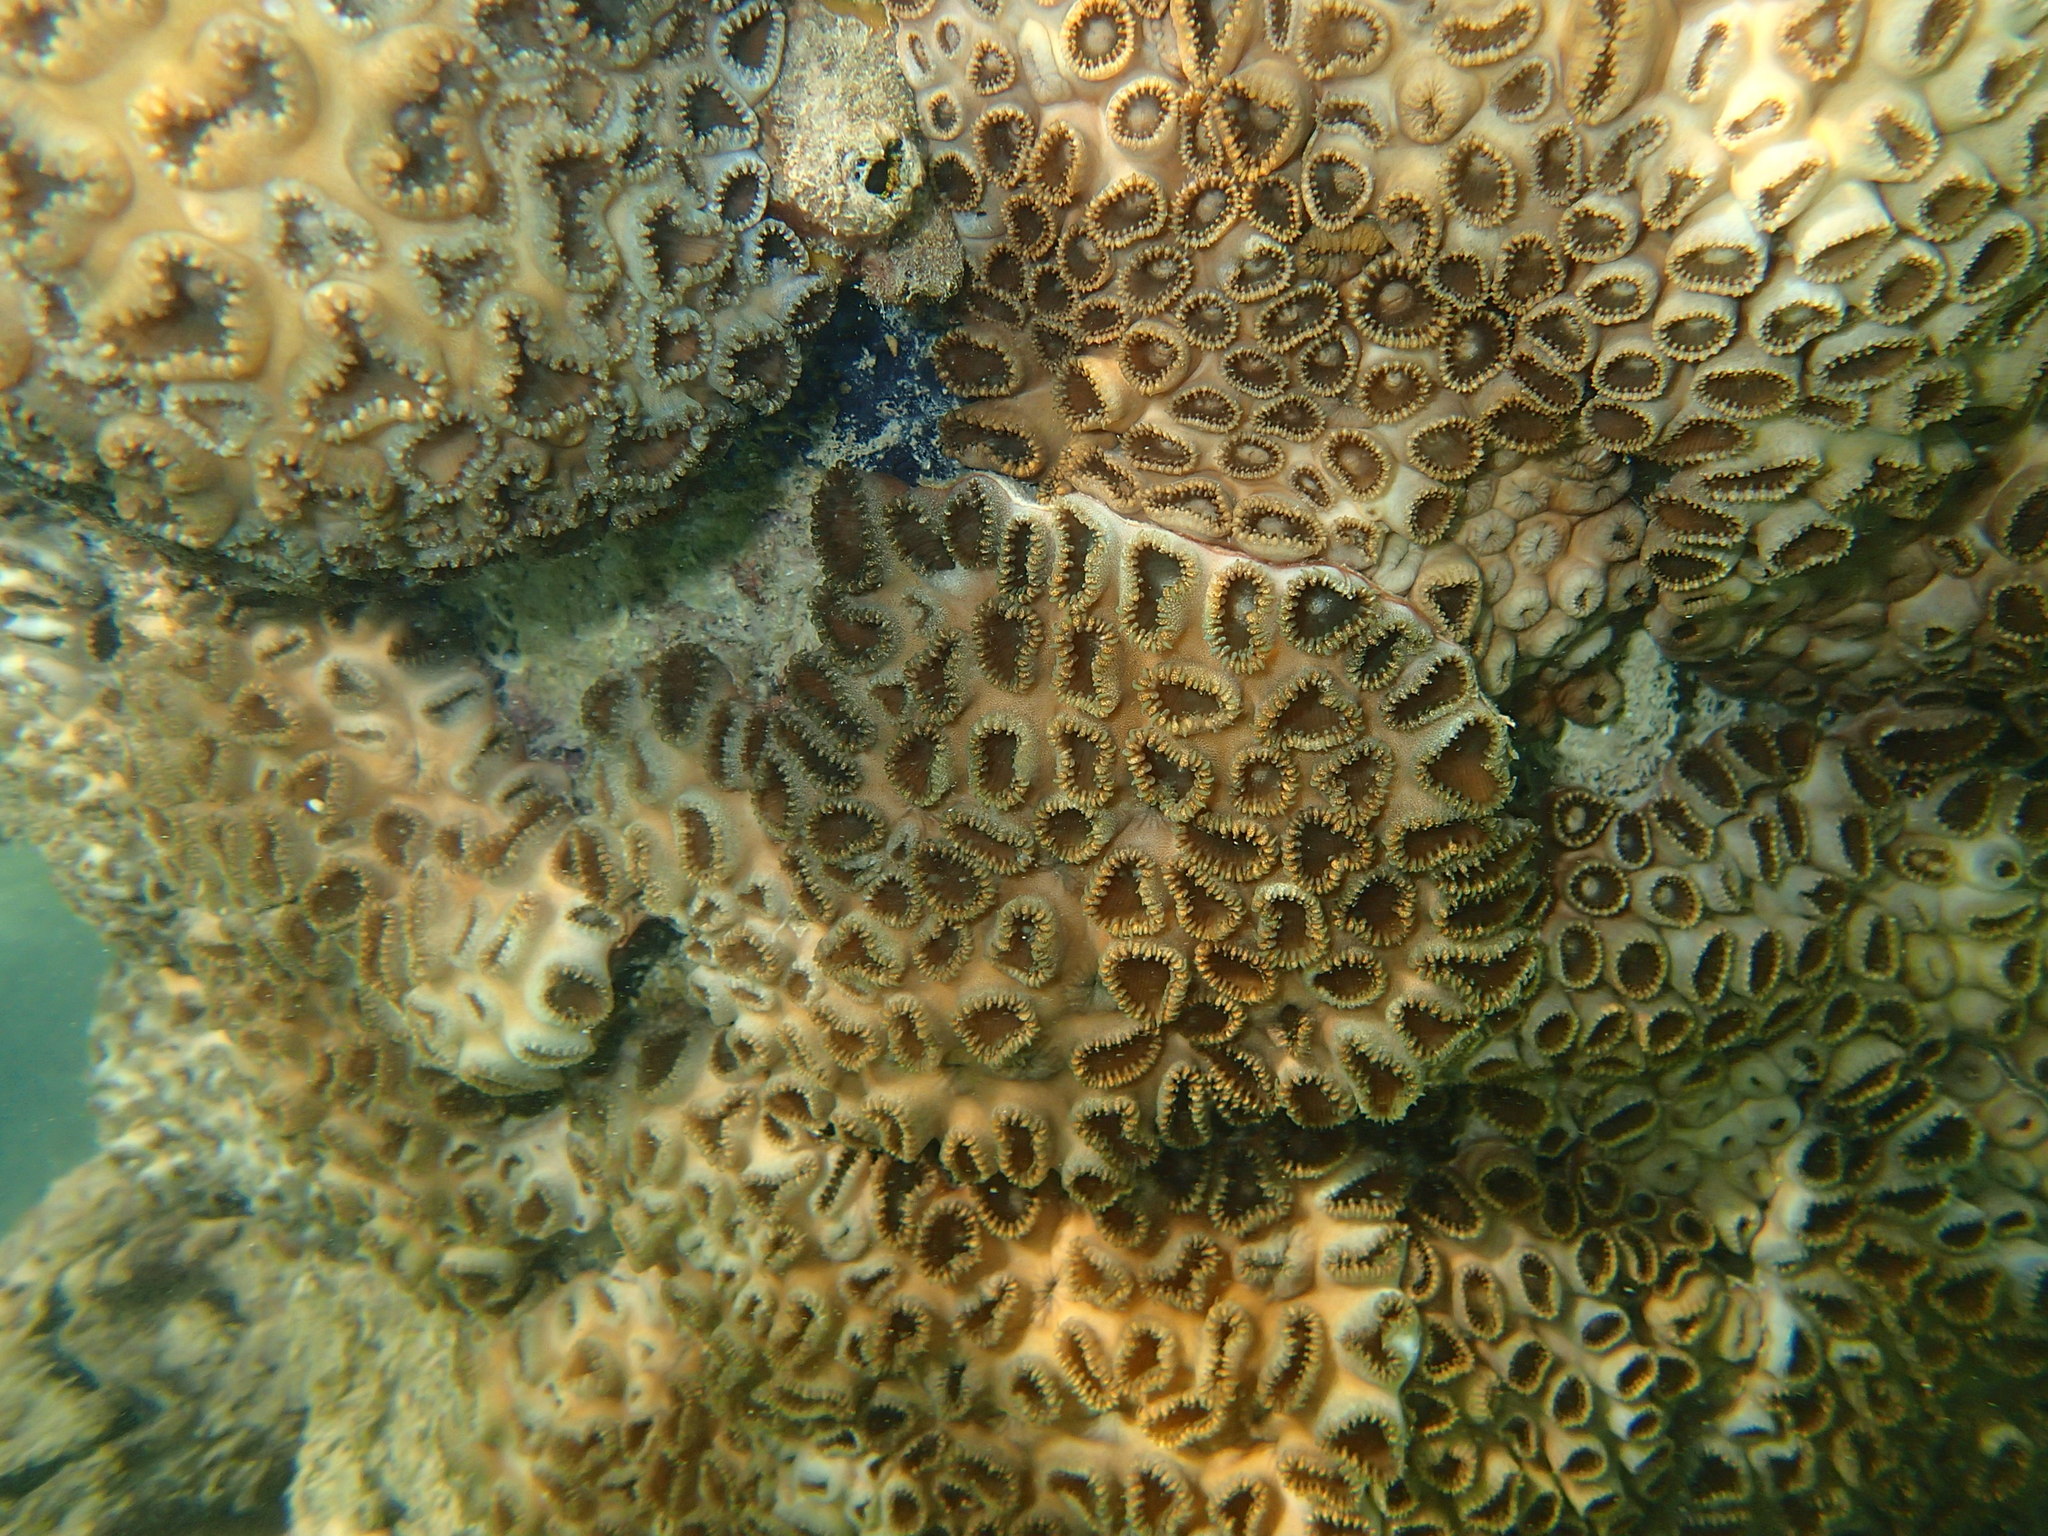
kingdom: Animalia
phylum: Cnidaria
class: Anthozoa
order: Zoantharia
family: Sphenopidae
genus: Palythoa
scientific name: Palythoa tuberculosa
